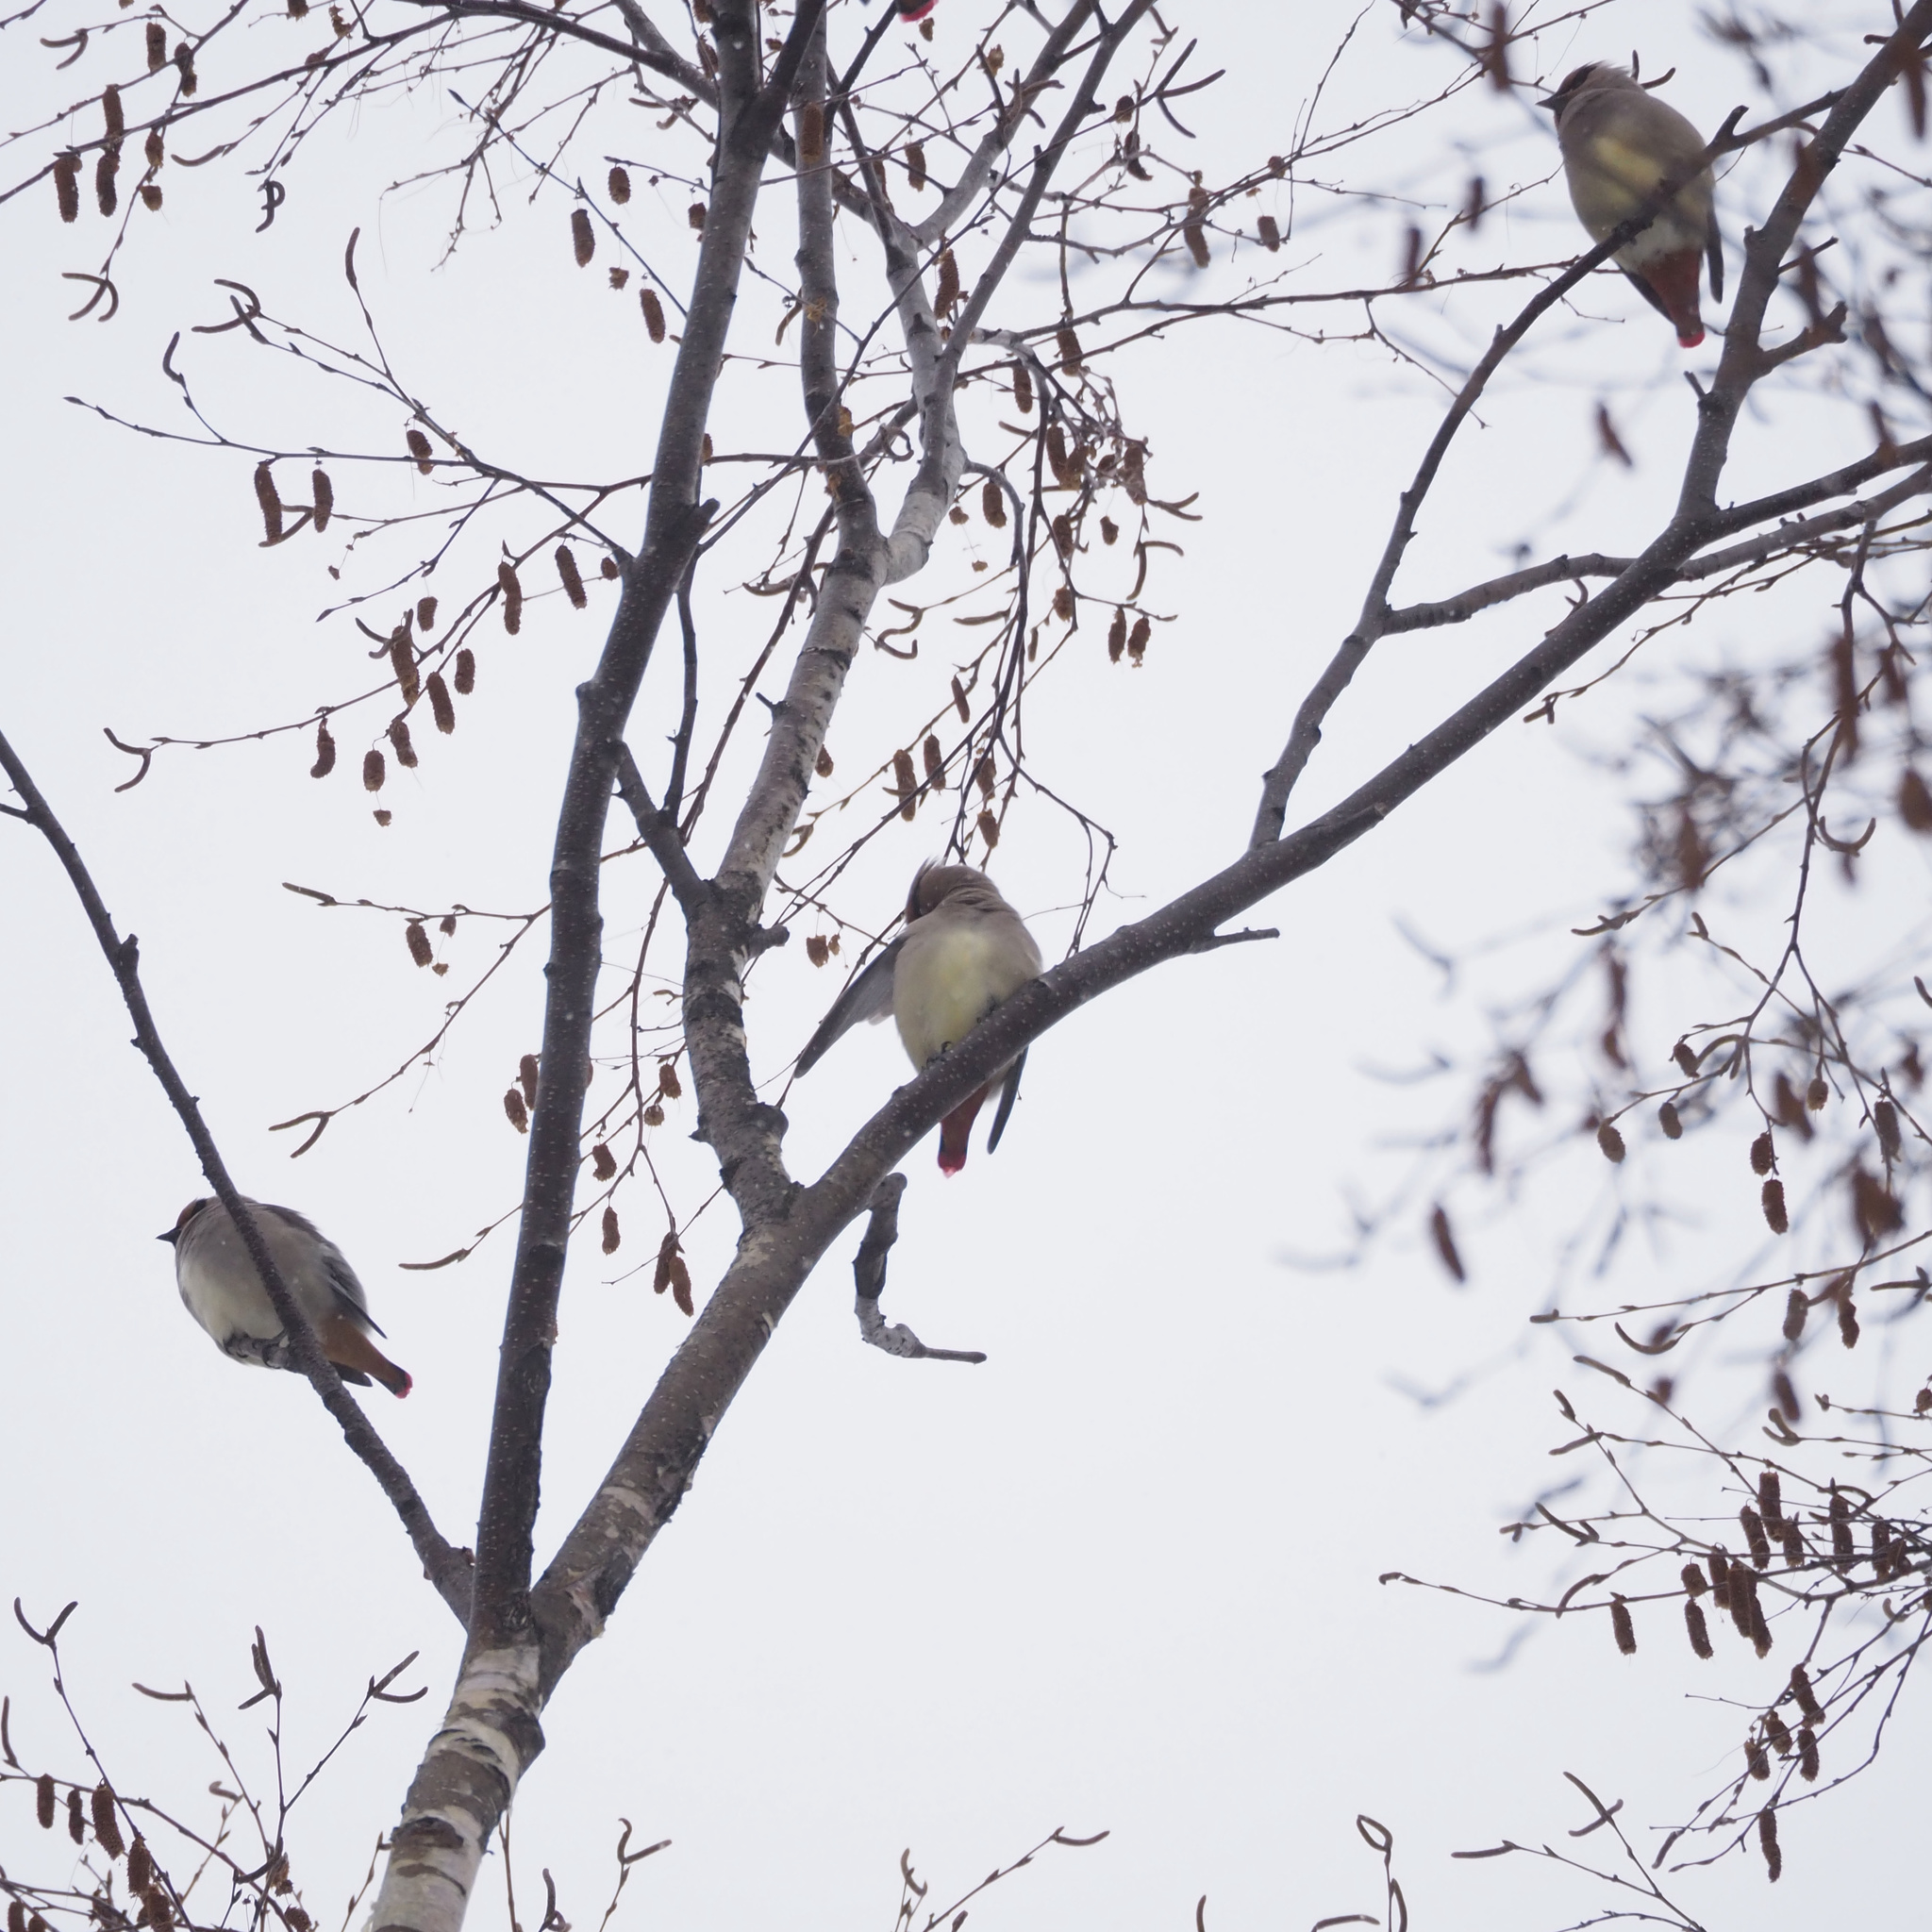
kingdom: Animalia
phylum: Chordata
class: Aves
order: Passeriformes
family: Bombycillidae
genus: Bombycilla
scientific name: Bombycilla japonica
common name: Japanese waxwing
